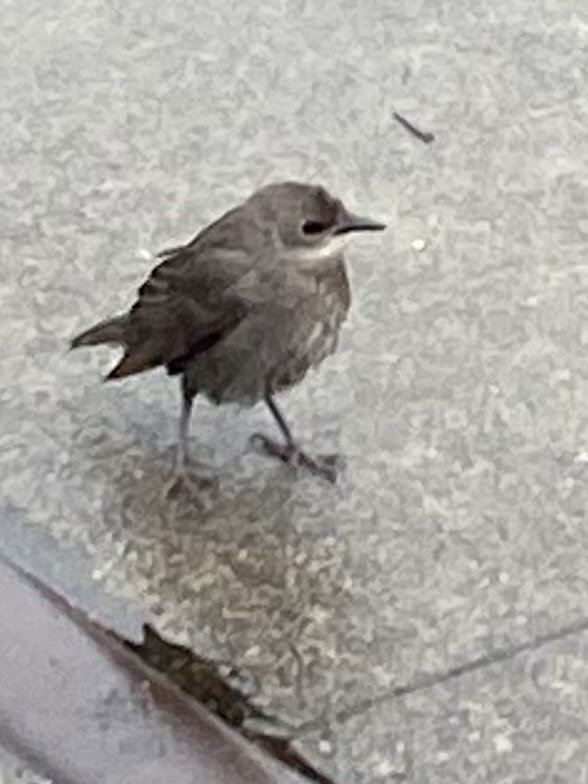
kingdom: Animalia
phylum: Chordata
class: Aves
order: Passeriformes
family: Sturnidae
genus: Sturnus
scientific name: Sturnus vulgaris
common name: Common starling
